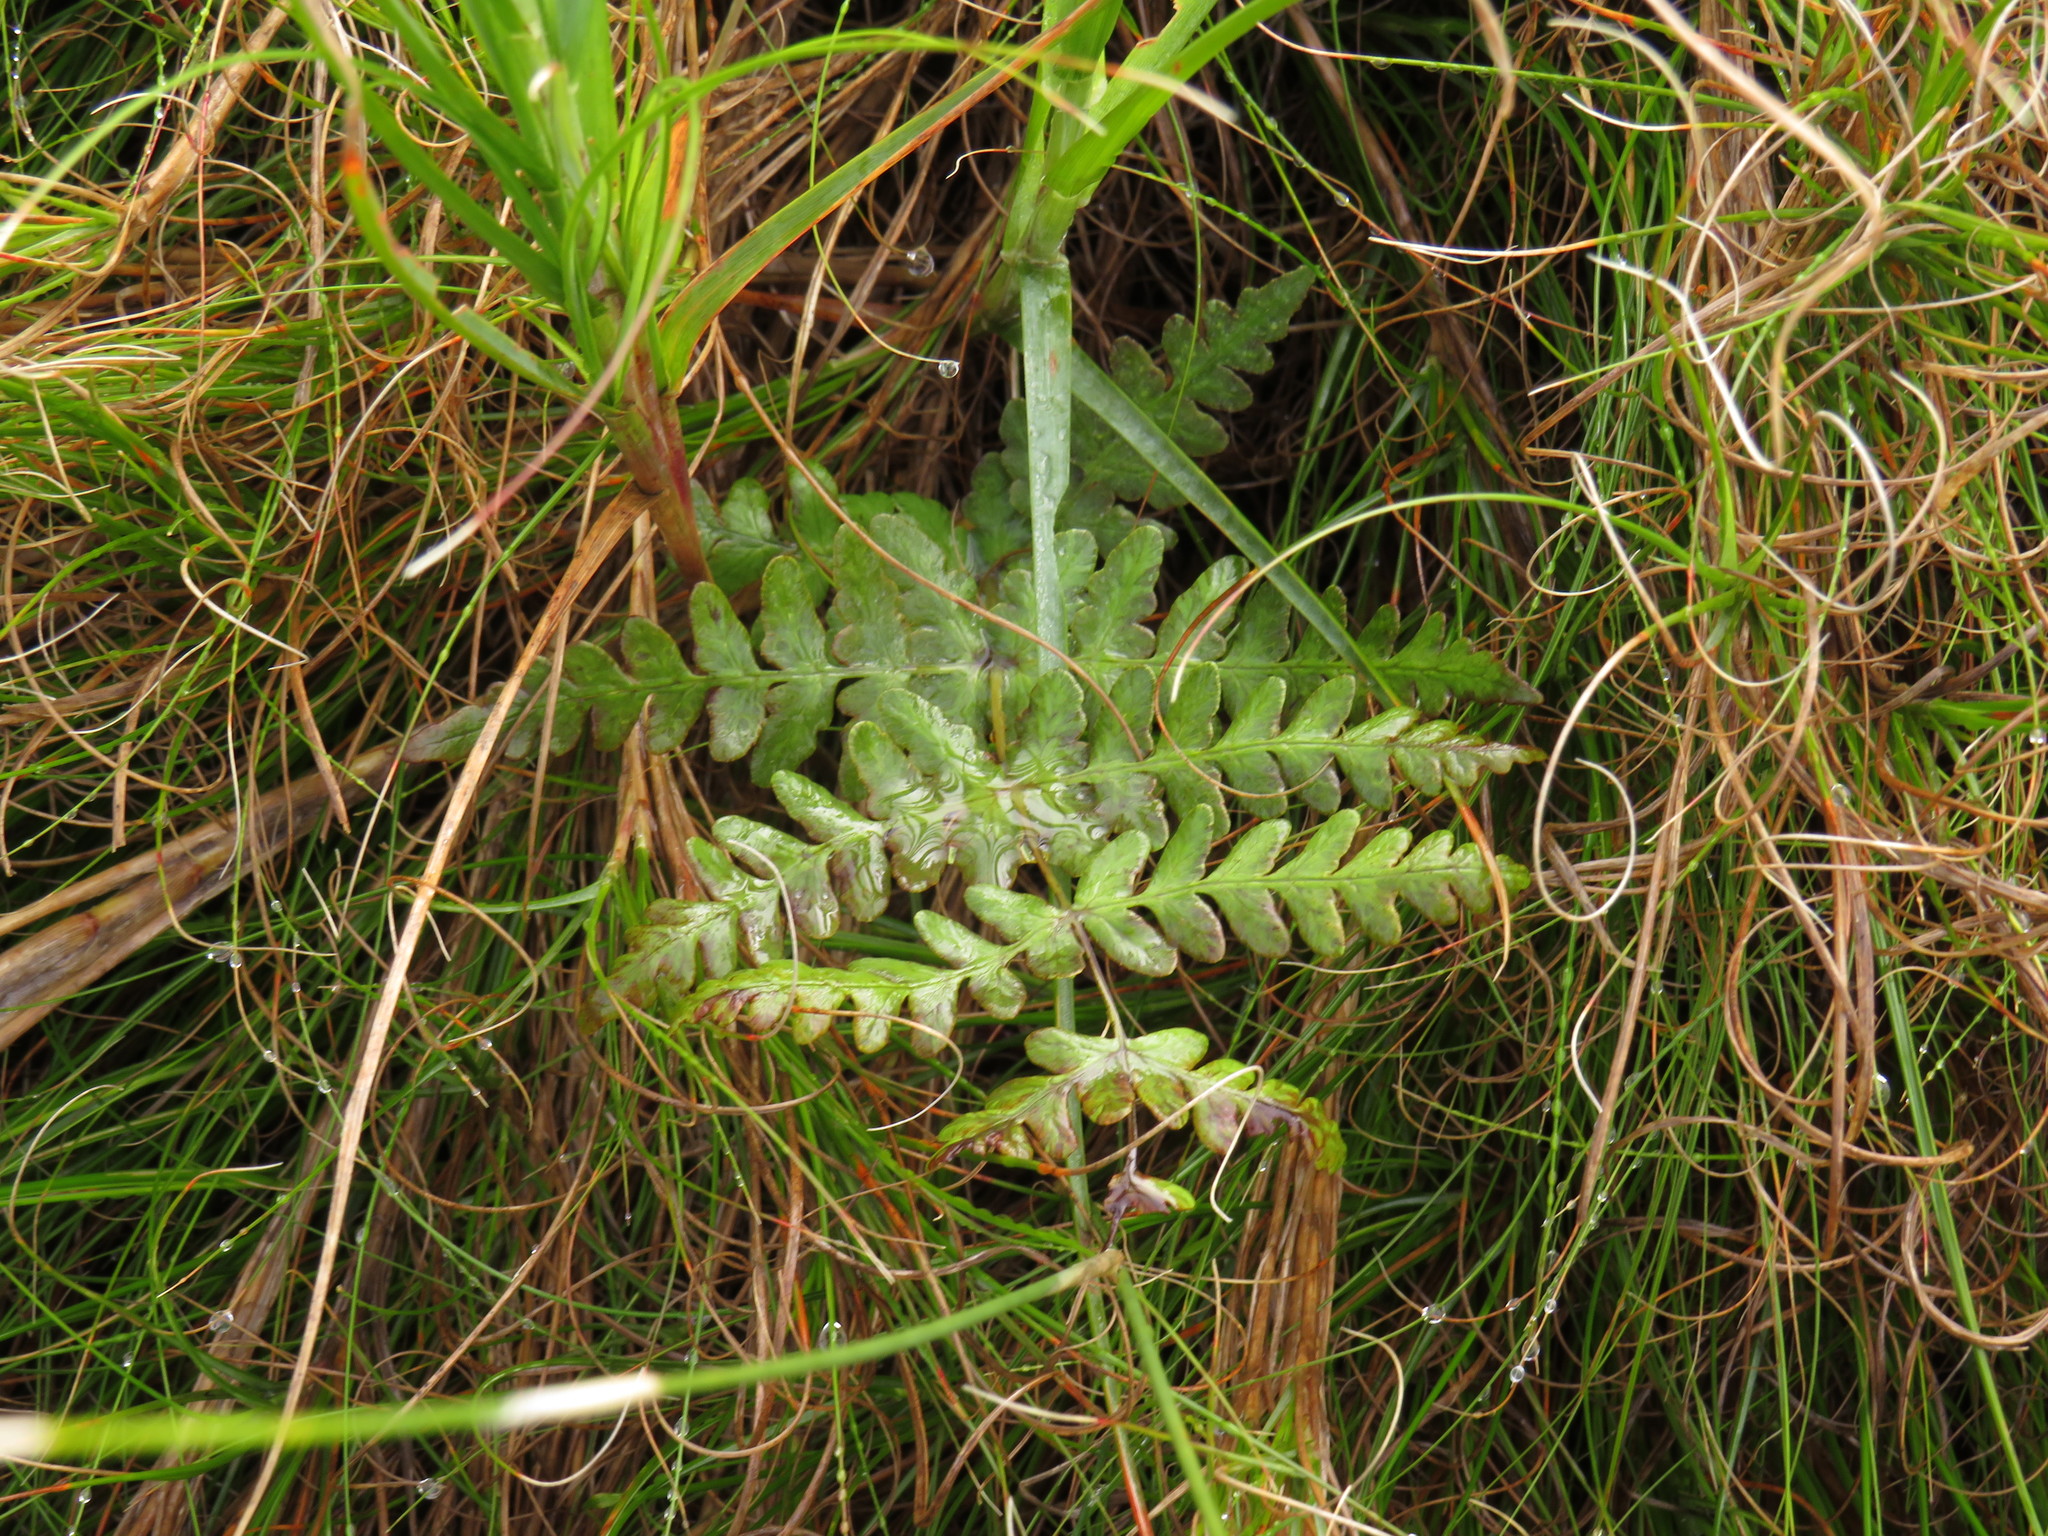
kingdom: Plantae
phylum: Tracheophyta
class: Polypodiopsida
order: Polypodiales
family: Dennstaedtiaceae
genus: Histiopteris
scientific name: Histiopteris incisa
